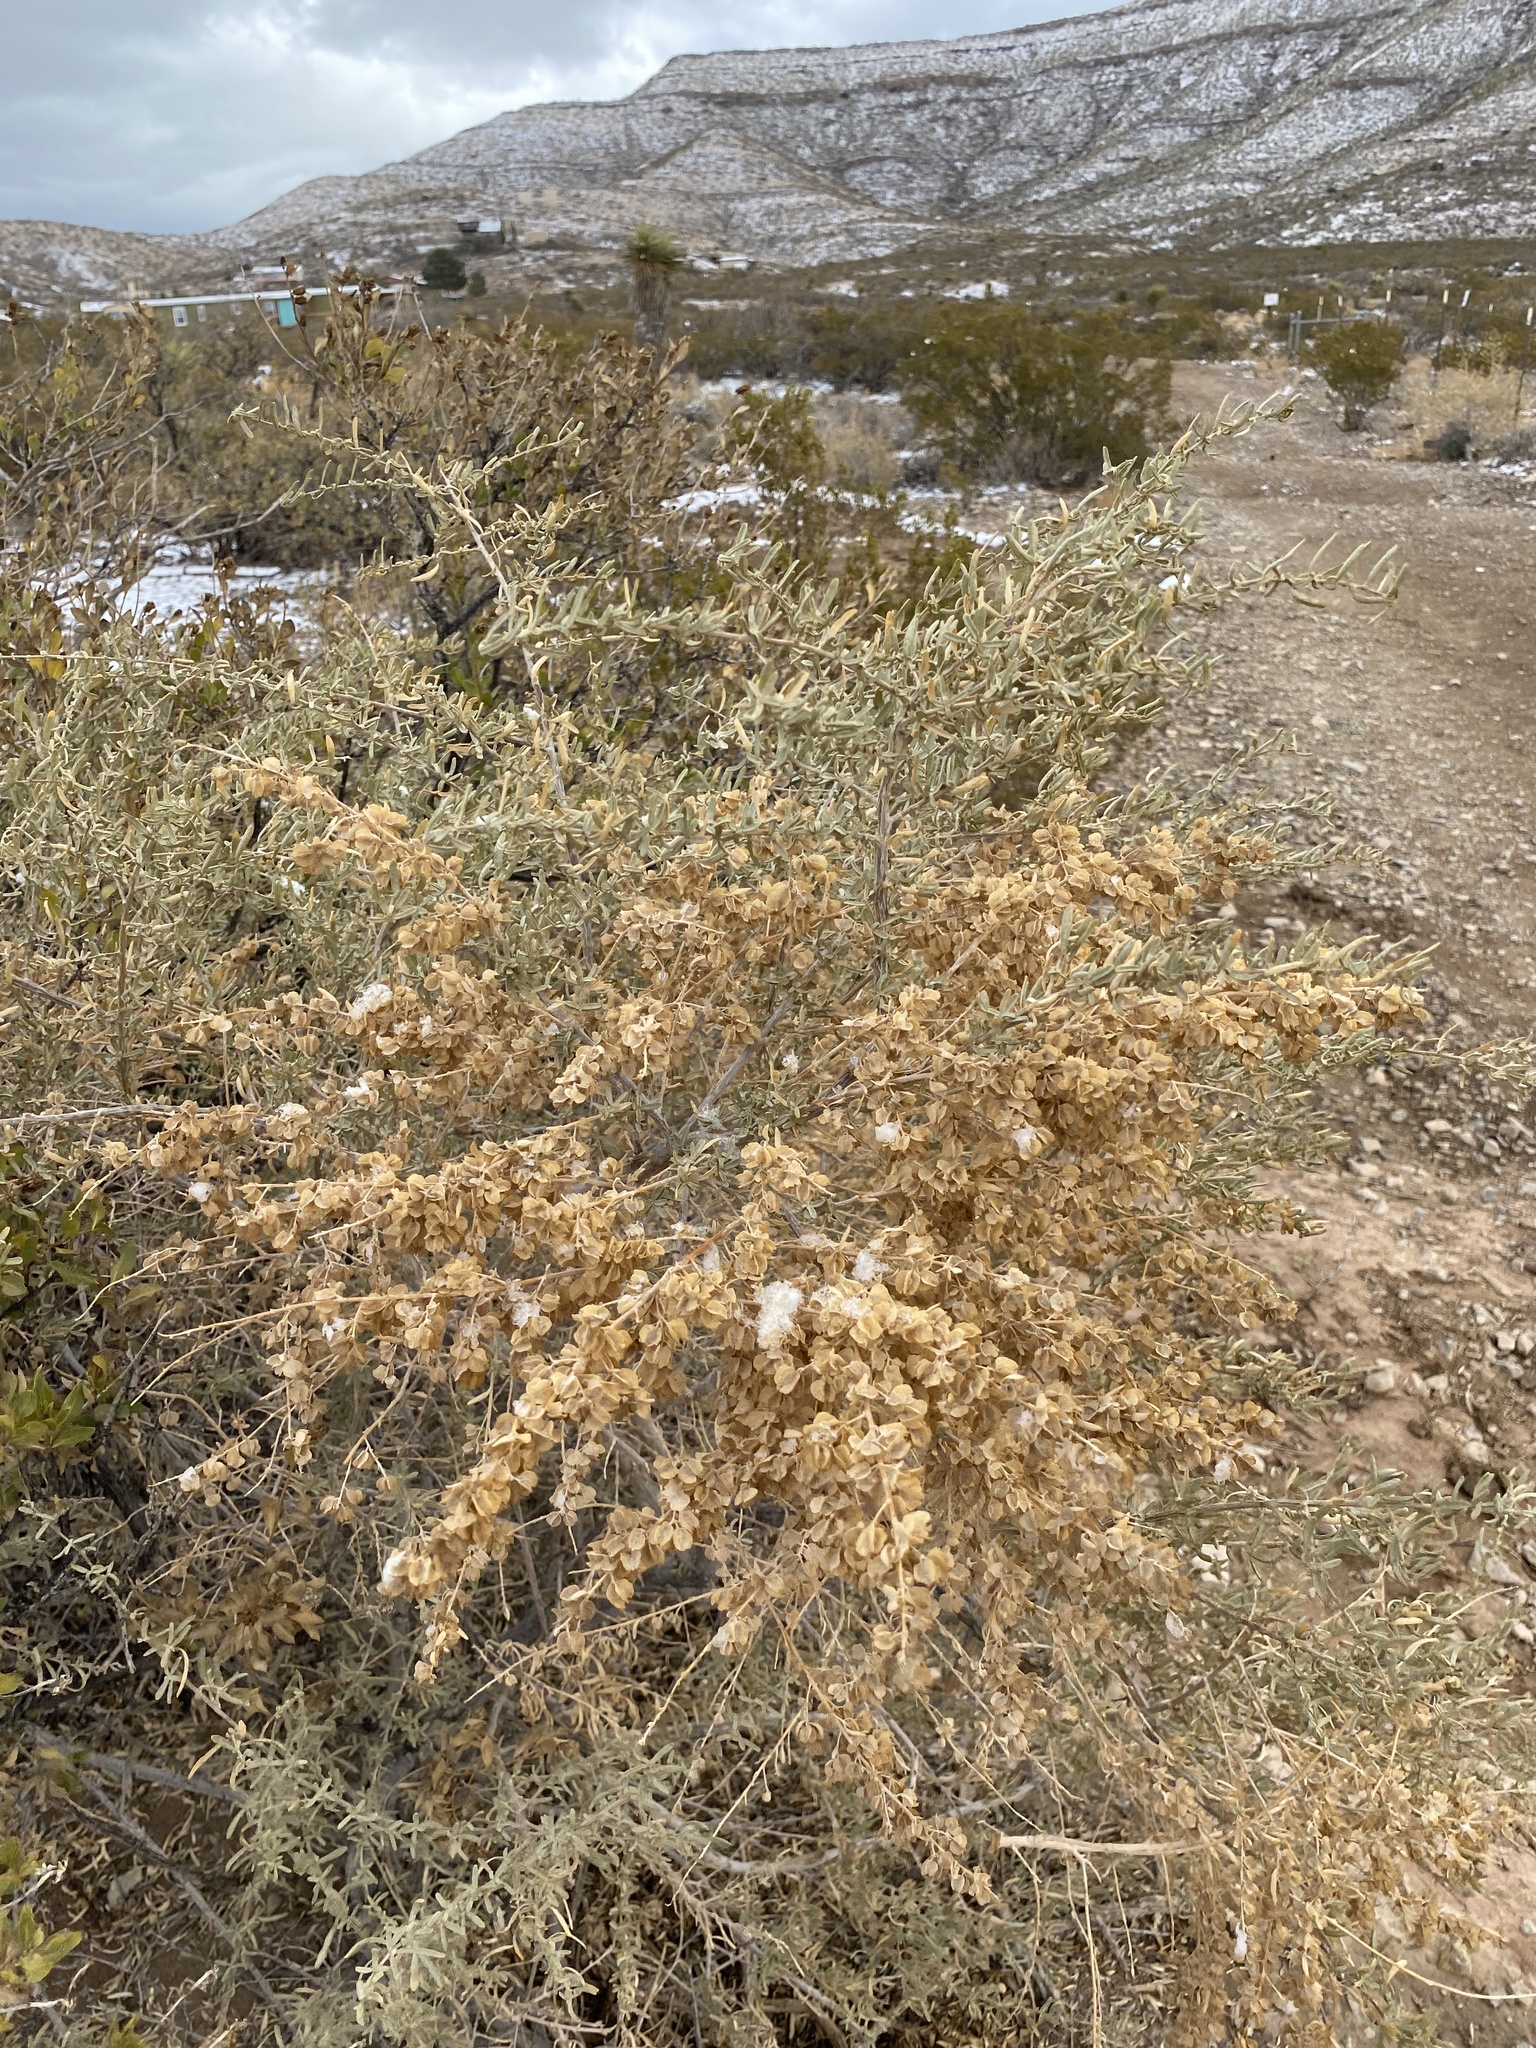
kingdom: Plantae
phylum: Tracheophyta
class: Magnoliopsida
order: Caryophyllales
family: Amaranthaceae
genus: Atriplex
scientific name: Atriplex canescens
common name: Four-wing saltbush
